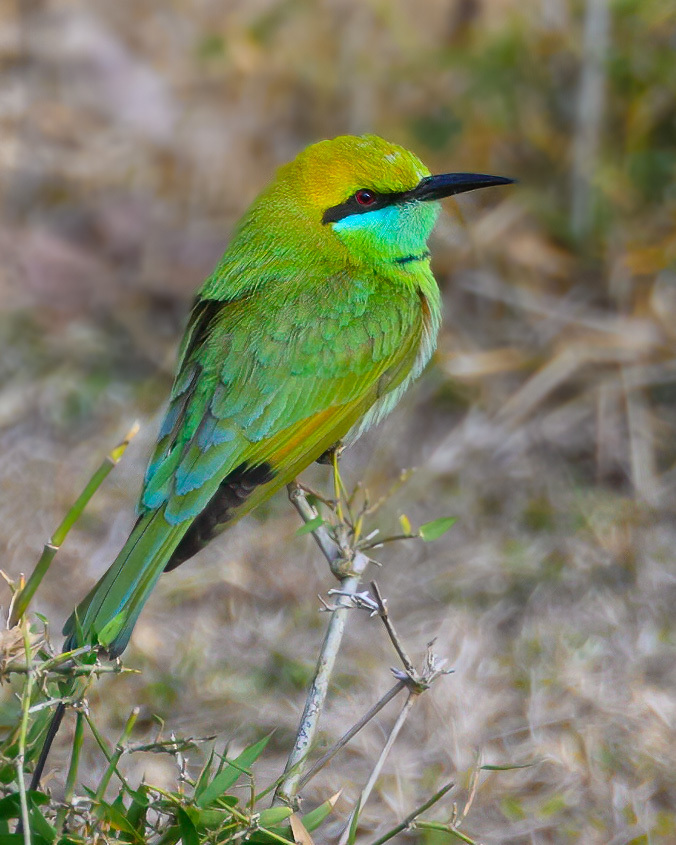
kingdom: Animalia
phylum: Chordata
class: Aves
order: Coraciiformes
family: Meropidae
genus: Merops
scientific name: Merops orientalis
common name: Green bee-eater
